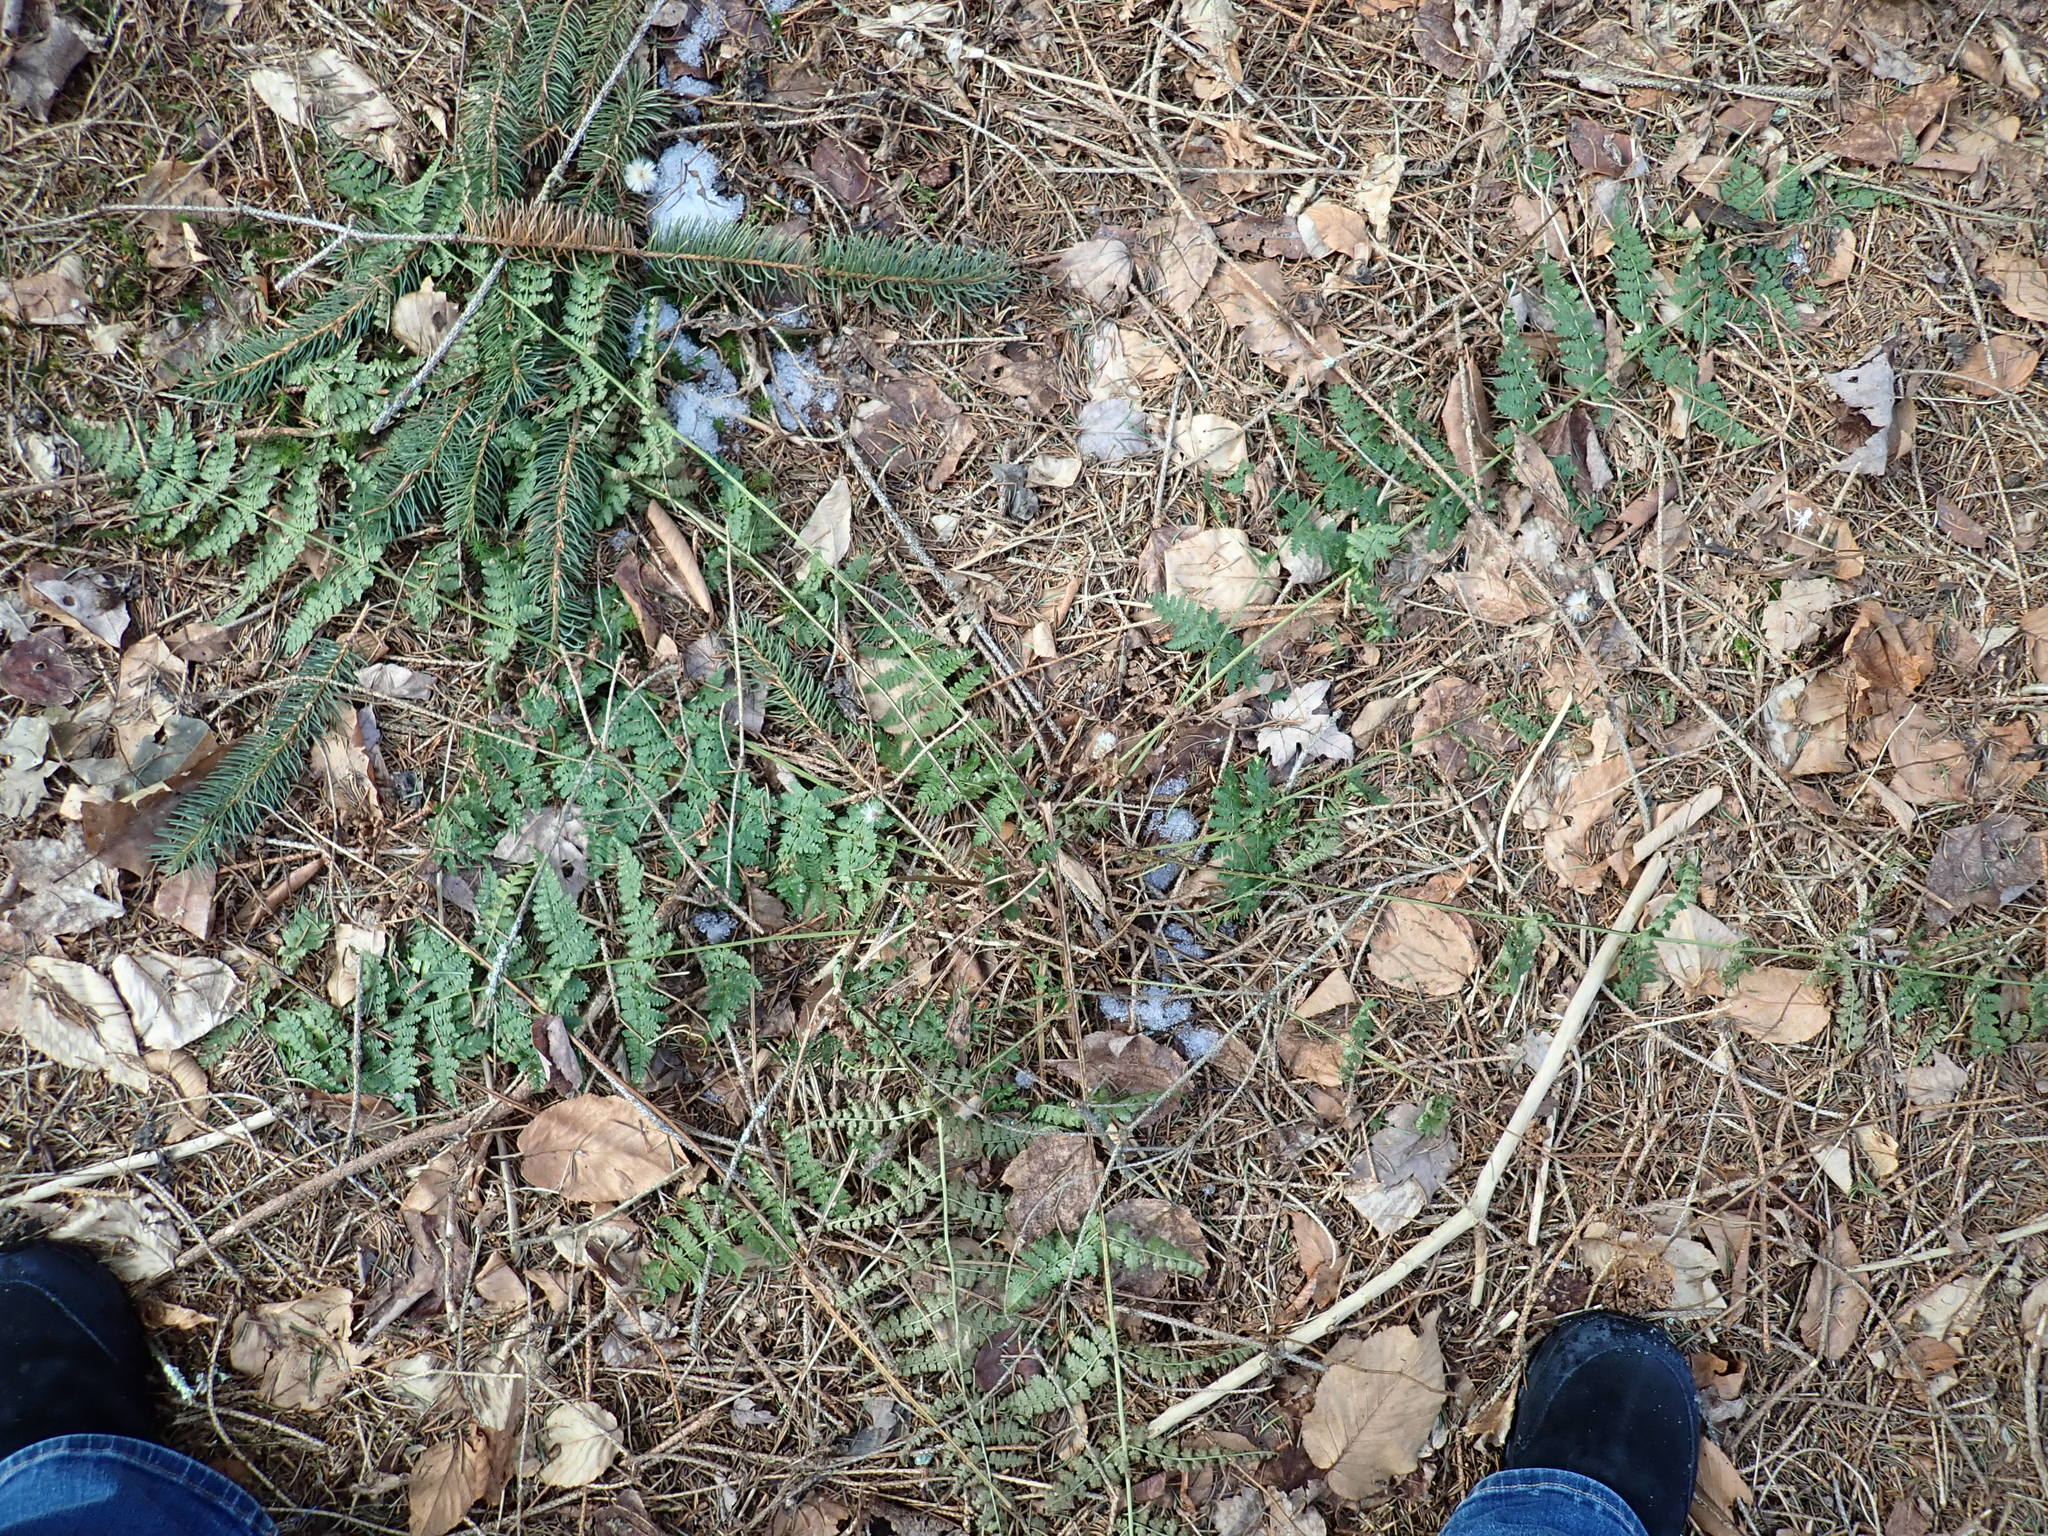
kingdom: Plantae
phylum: Tracheophyta
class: Polypodiopsida
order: Polypodiales
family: Dryopteridaceae
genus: Dryopteris
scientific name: Dryopteris intermedia
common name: Evergreen wood fern
